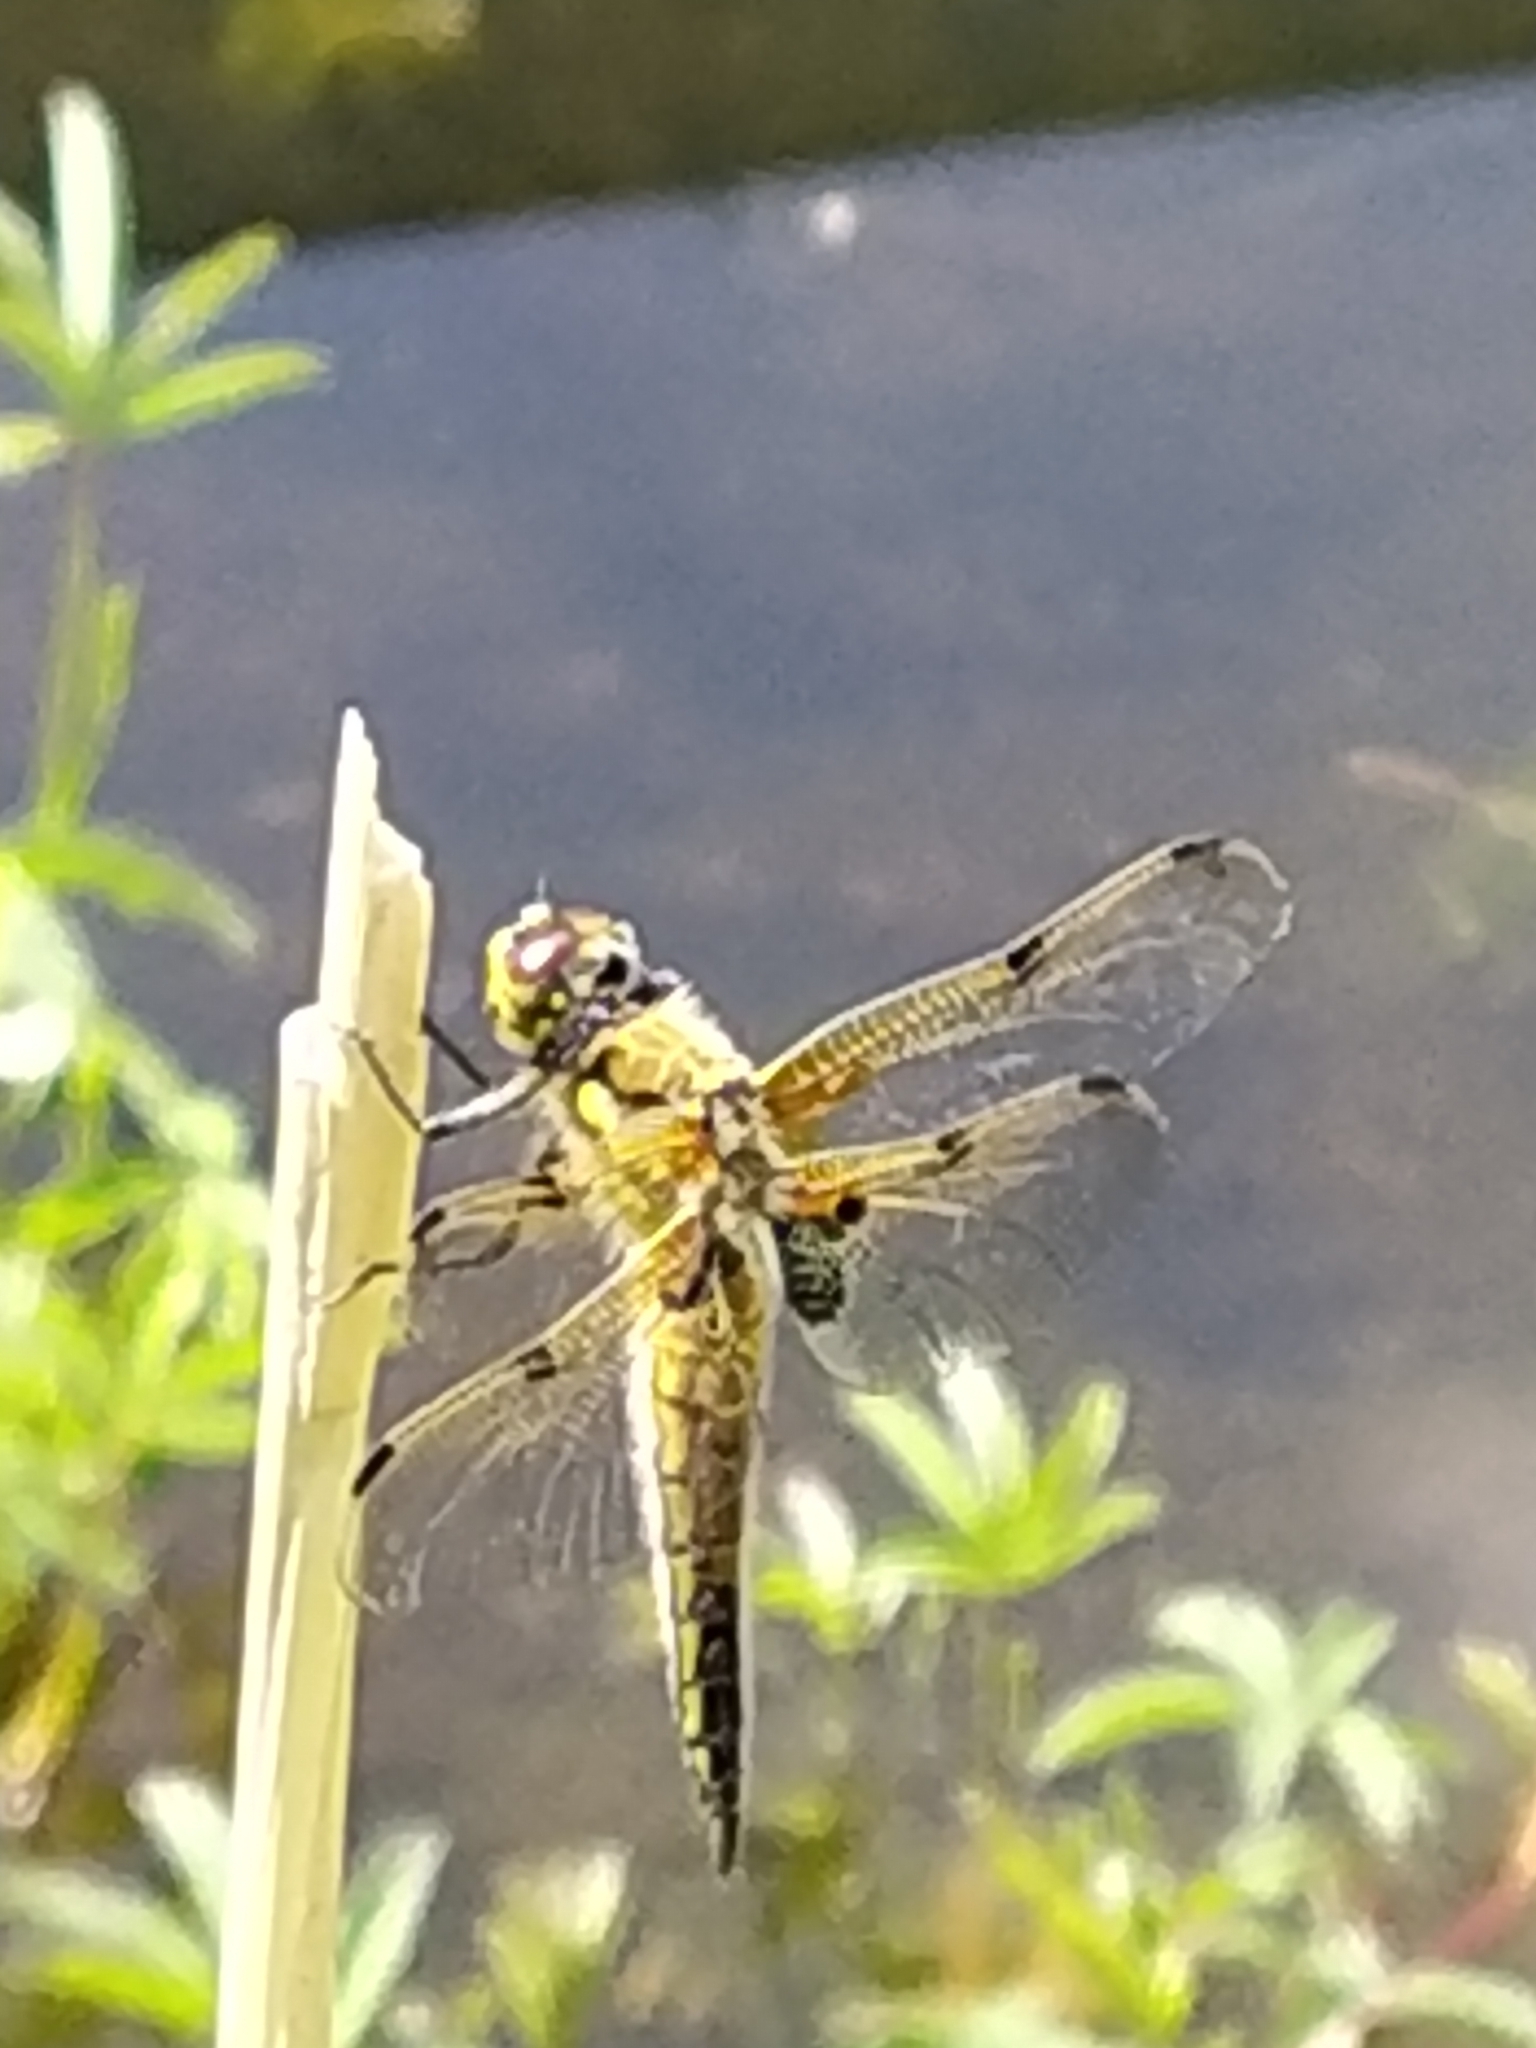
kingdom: Animalia
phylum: Arthropoda
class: Insecta
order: Odonata
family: Libellulidae
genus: Libellula
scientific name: Libellula quadrimaculata
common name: Four-spotted chaser
